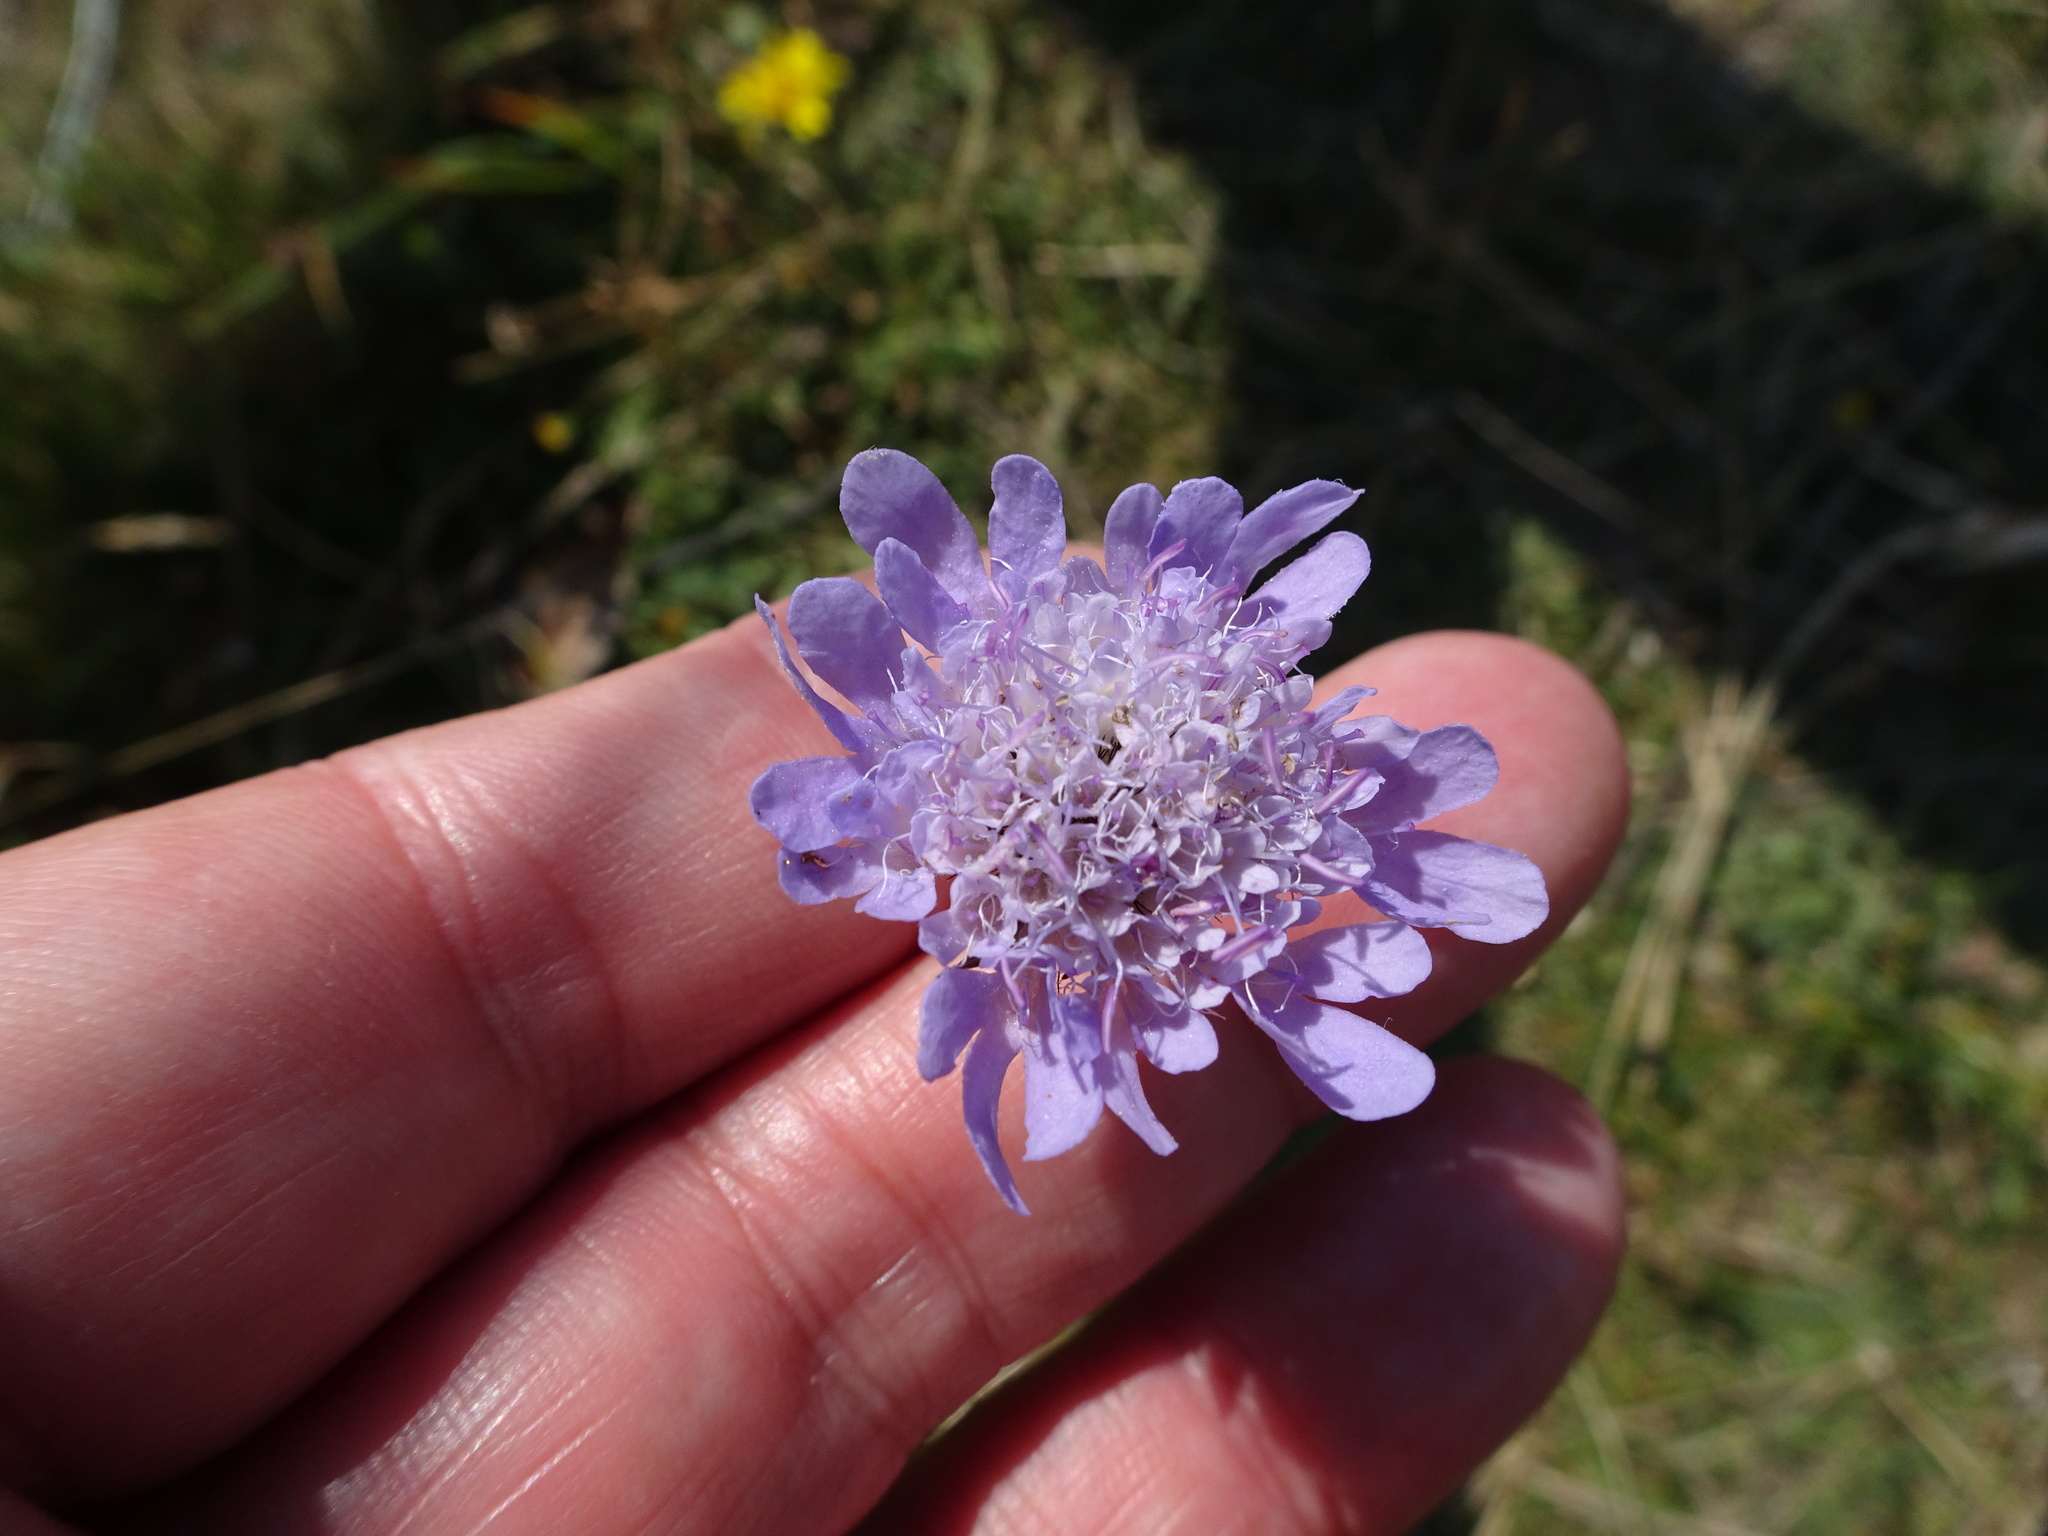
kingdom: Plantae
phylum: Tracheophyta
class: Magnoliopsida
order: Dipsacales
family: Caprifoliaceae
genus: Knautia
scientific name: Knautia arvensis
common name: Field scabiosa
